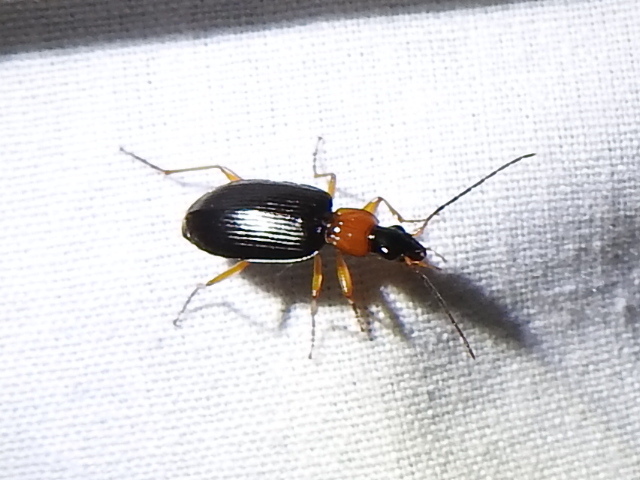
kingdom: Animalia
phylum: Arthropoda
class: Insecta
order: Coleoptera
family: Carabidae
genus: Agonum
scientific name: Agonum decorum
